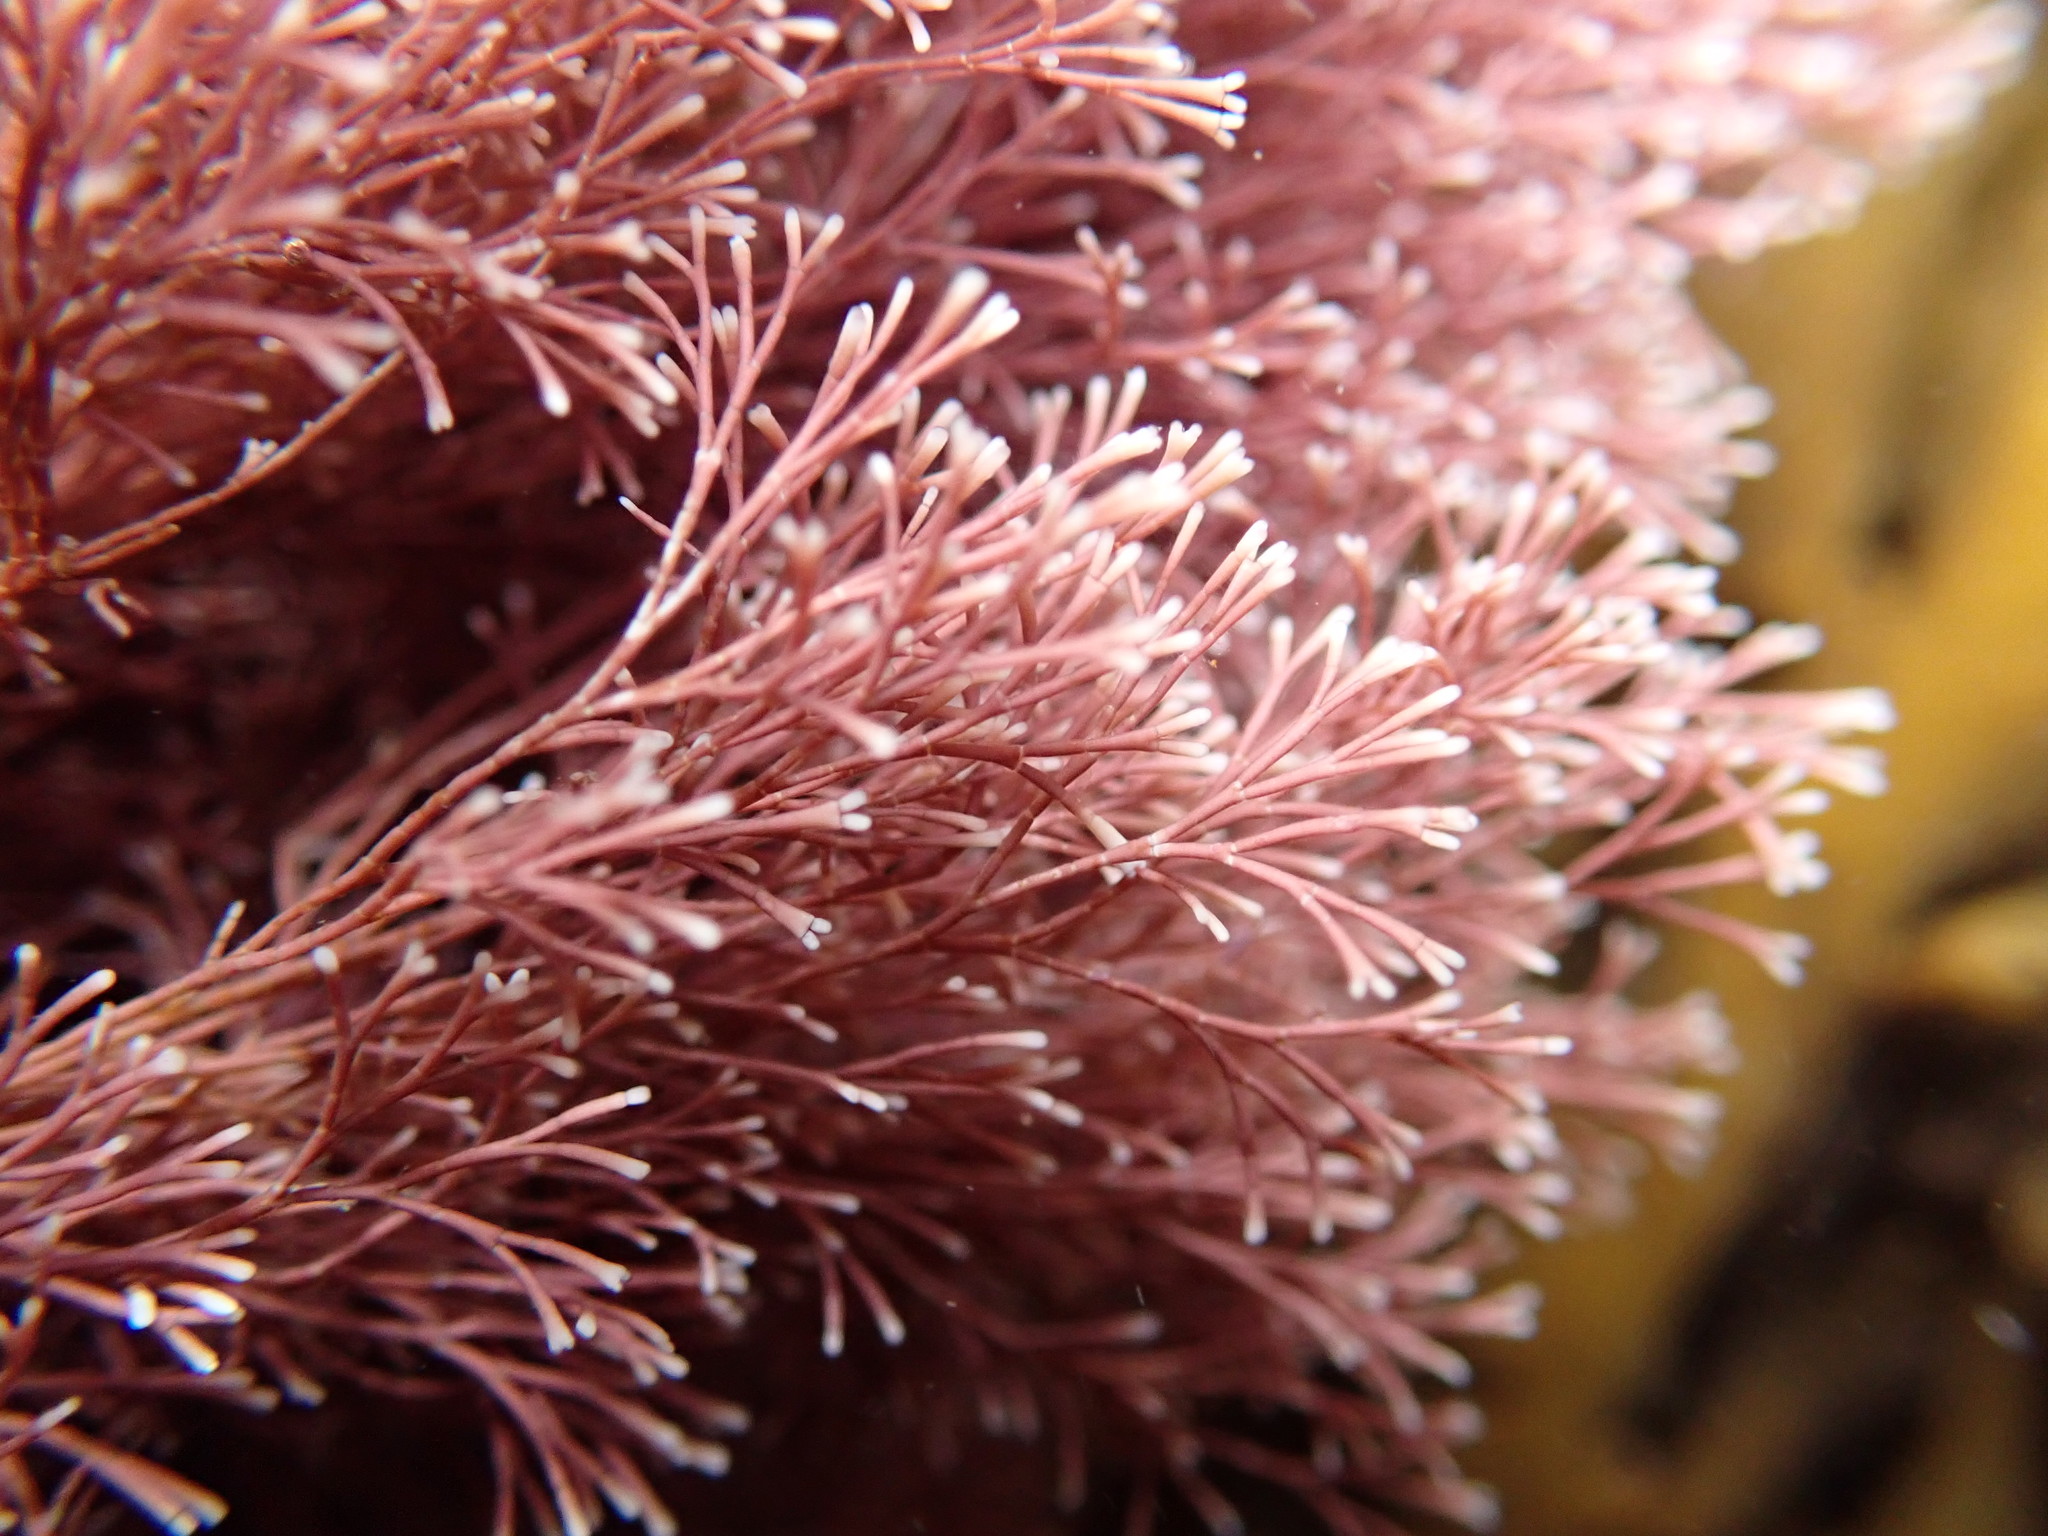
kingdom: Plantae
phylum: Rhodophyta
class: Florideophyceae
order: Corallinales
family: Corallinaceae
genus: Jania
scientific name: Jania sphaeroramosa
